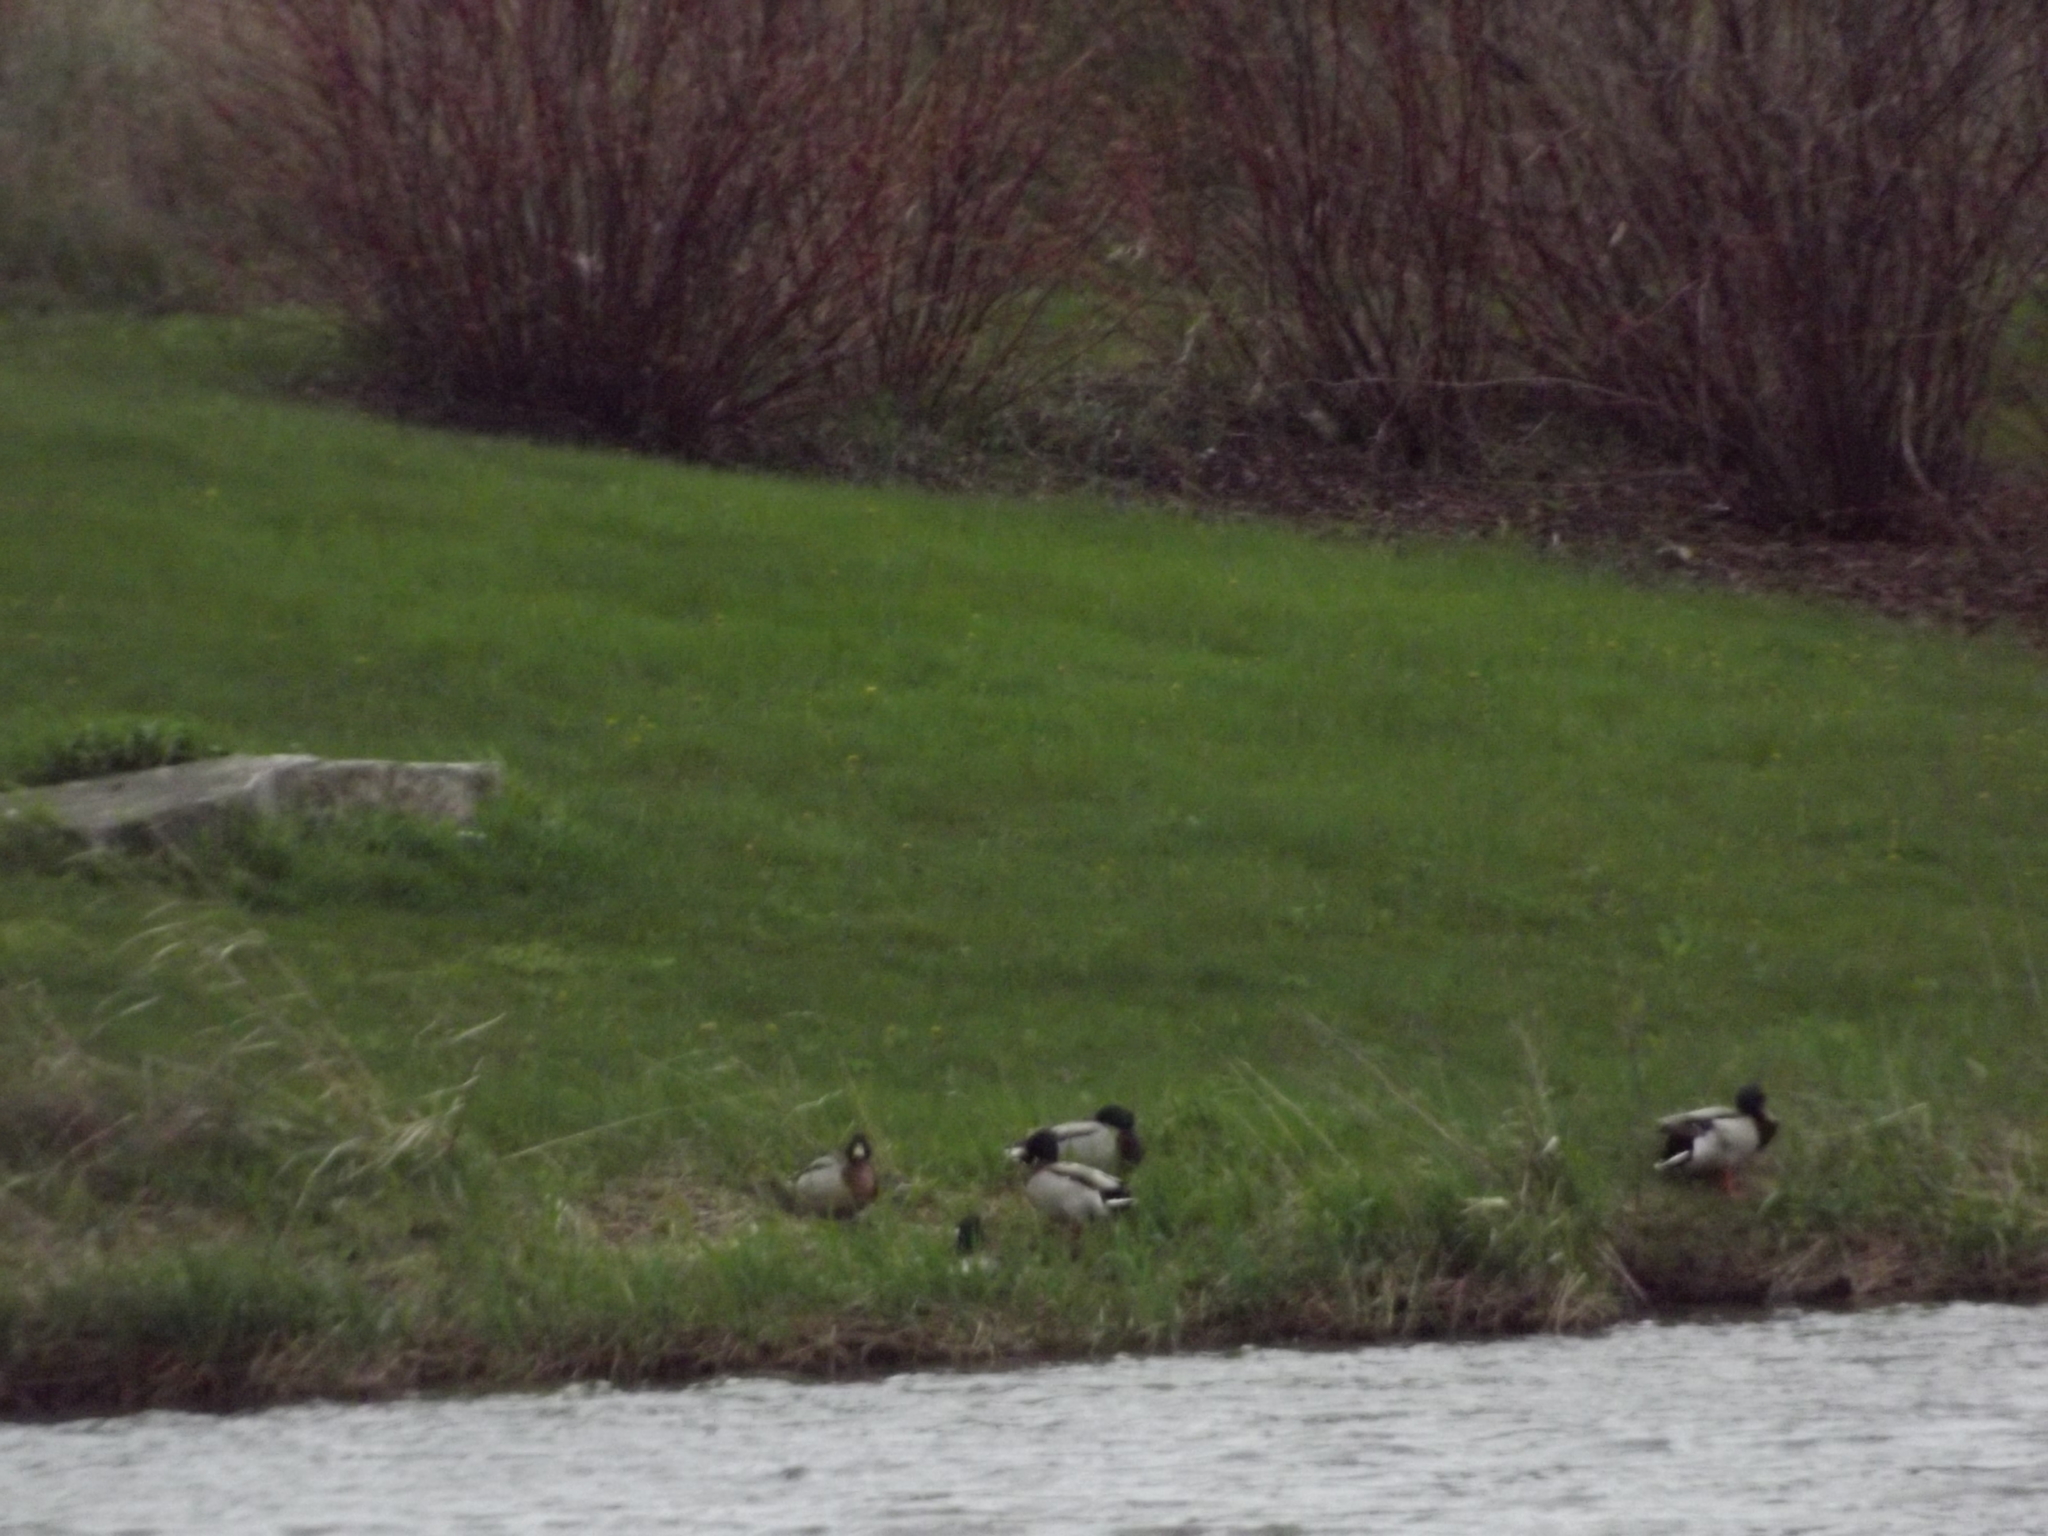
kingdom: Animalia
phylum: Chordata
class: Aves
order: Anseriformes
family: Anatidae
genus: Anas
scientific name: Anas platyrhynchos
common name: Mallard
